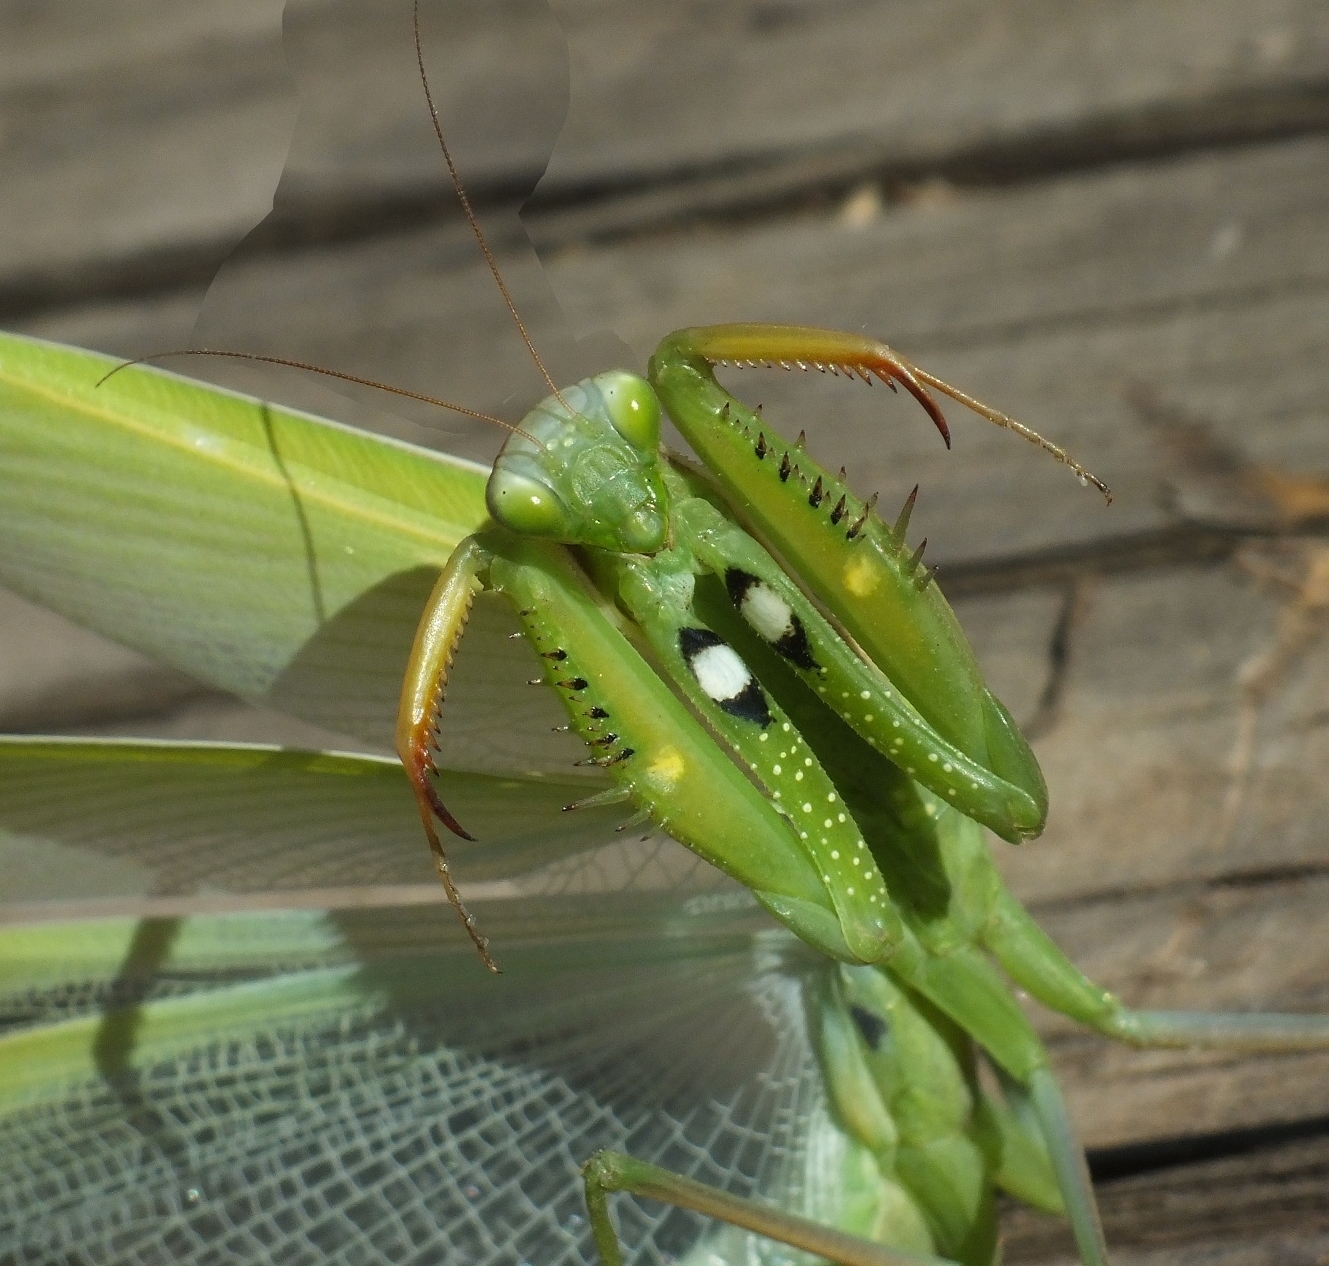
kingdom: Animalia
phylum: Arthropoda
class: Insecta
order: Mantodea
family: Mantidae
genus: Mantis
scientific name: Mantis religiosa
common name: Praying mantis
